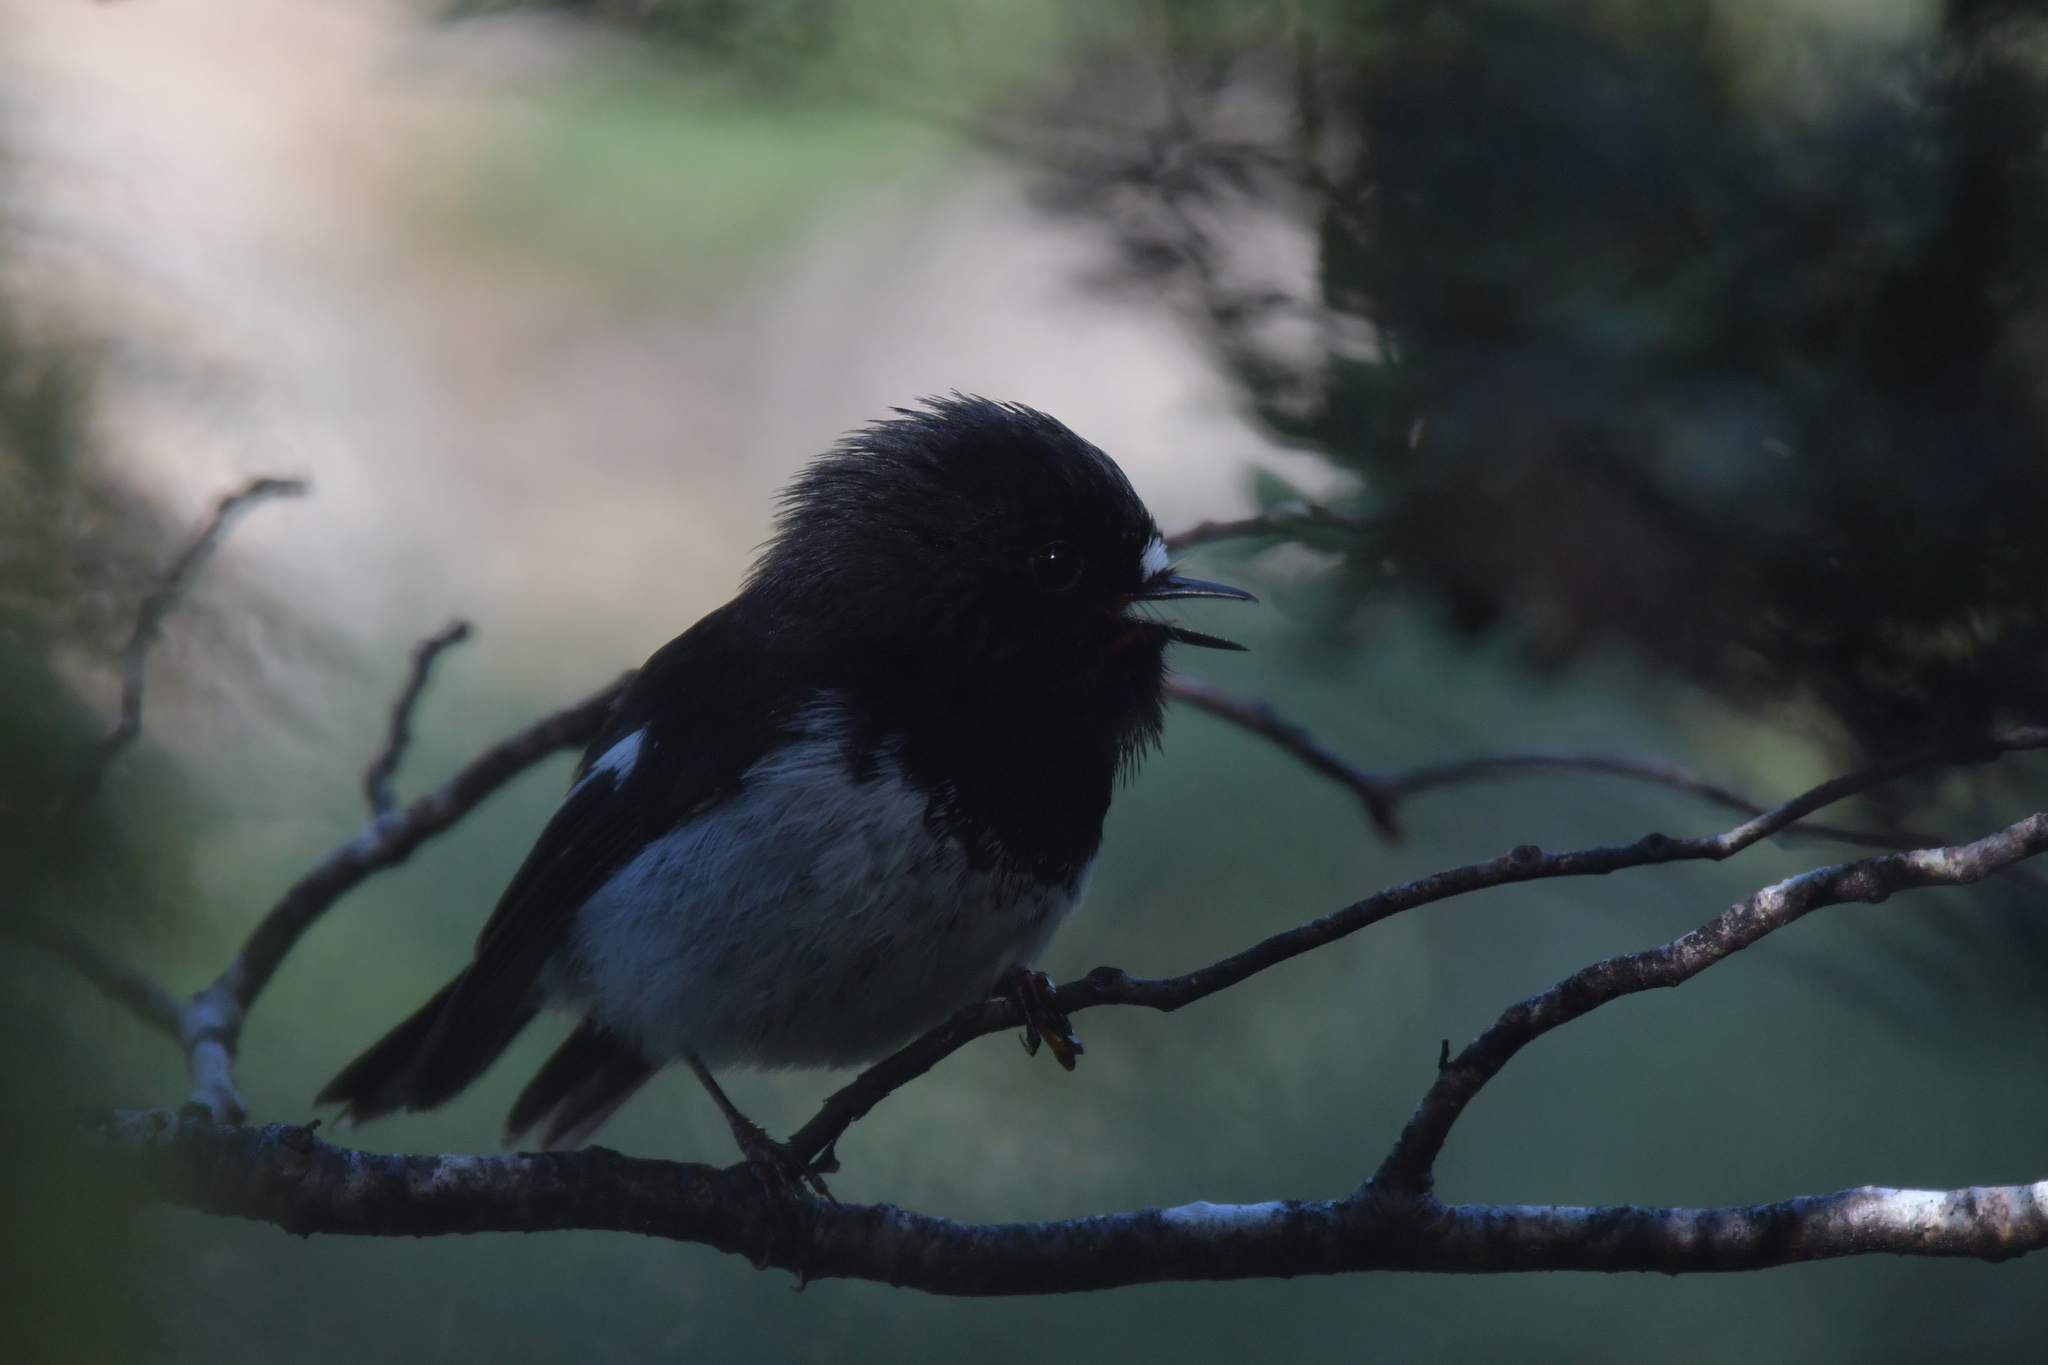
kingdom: Animalia
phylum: Chordata
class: Aves
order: Passeriformes
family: Petroicidae
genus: Petroica
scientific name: Petroica macrocephala
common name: Tomtit
